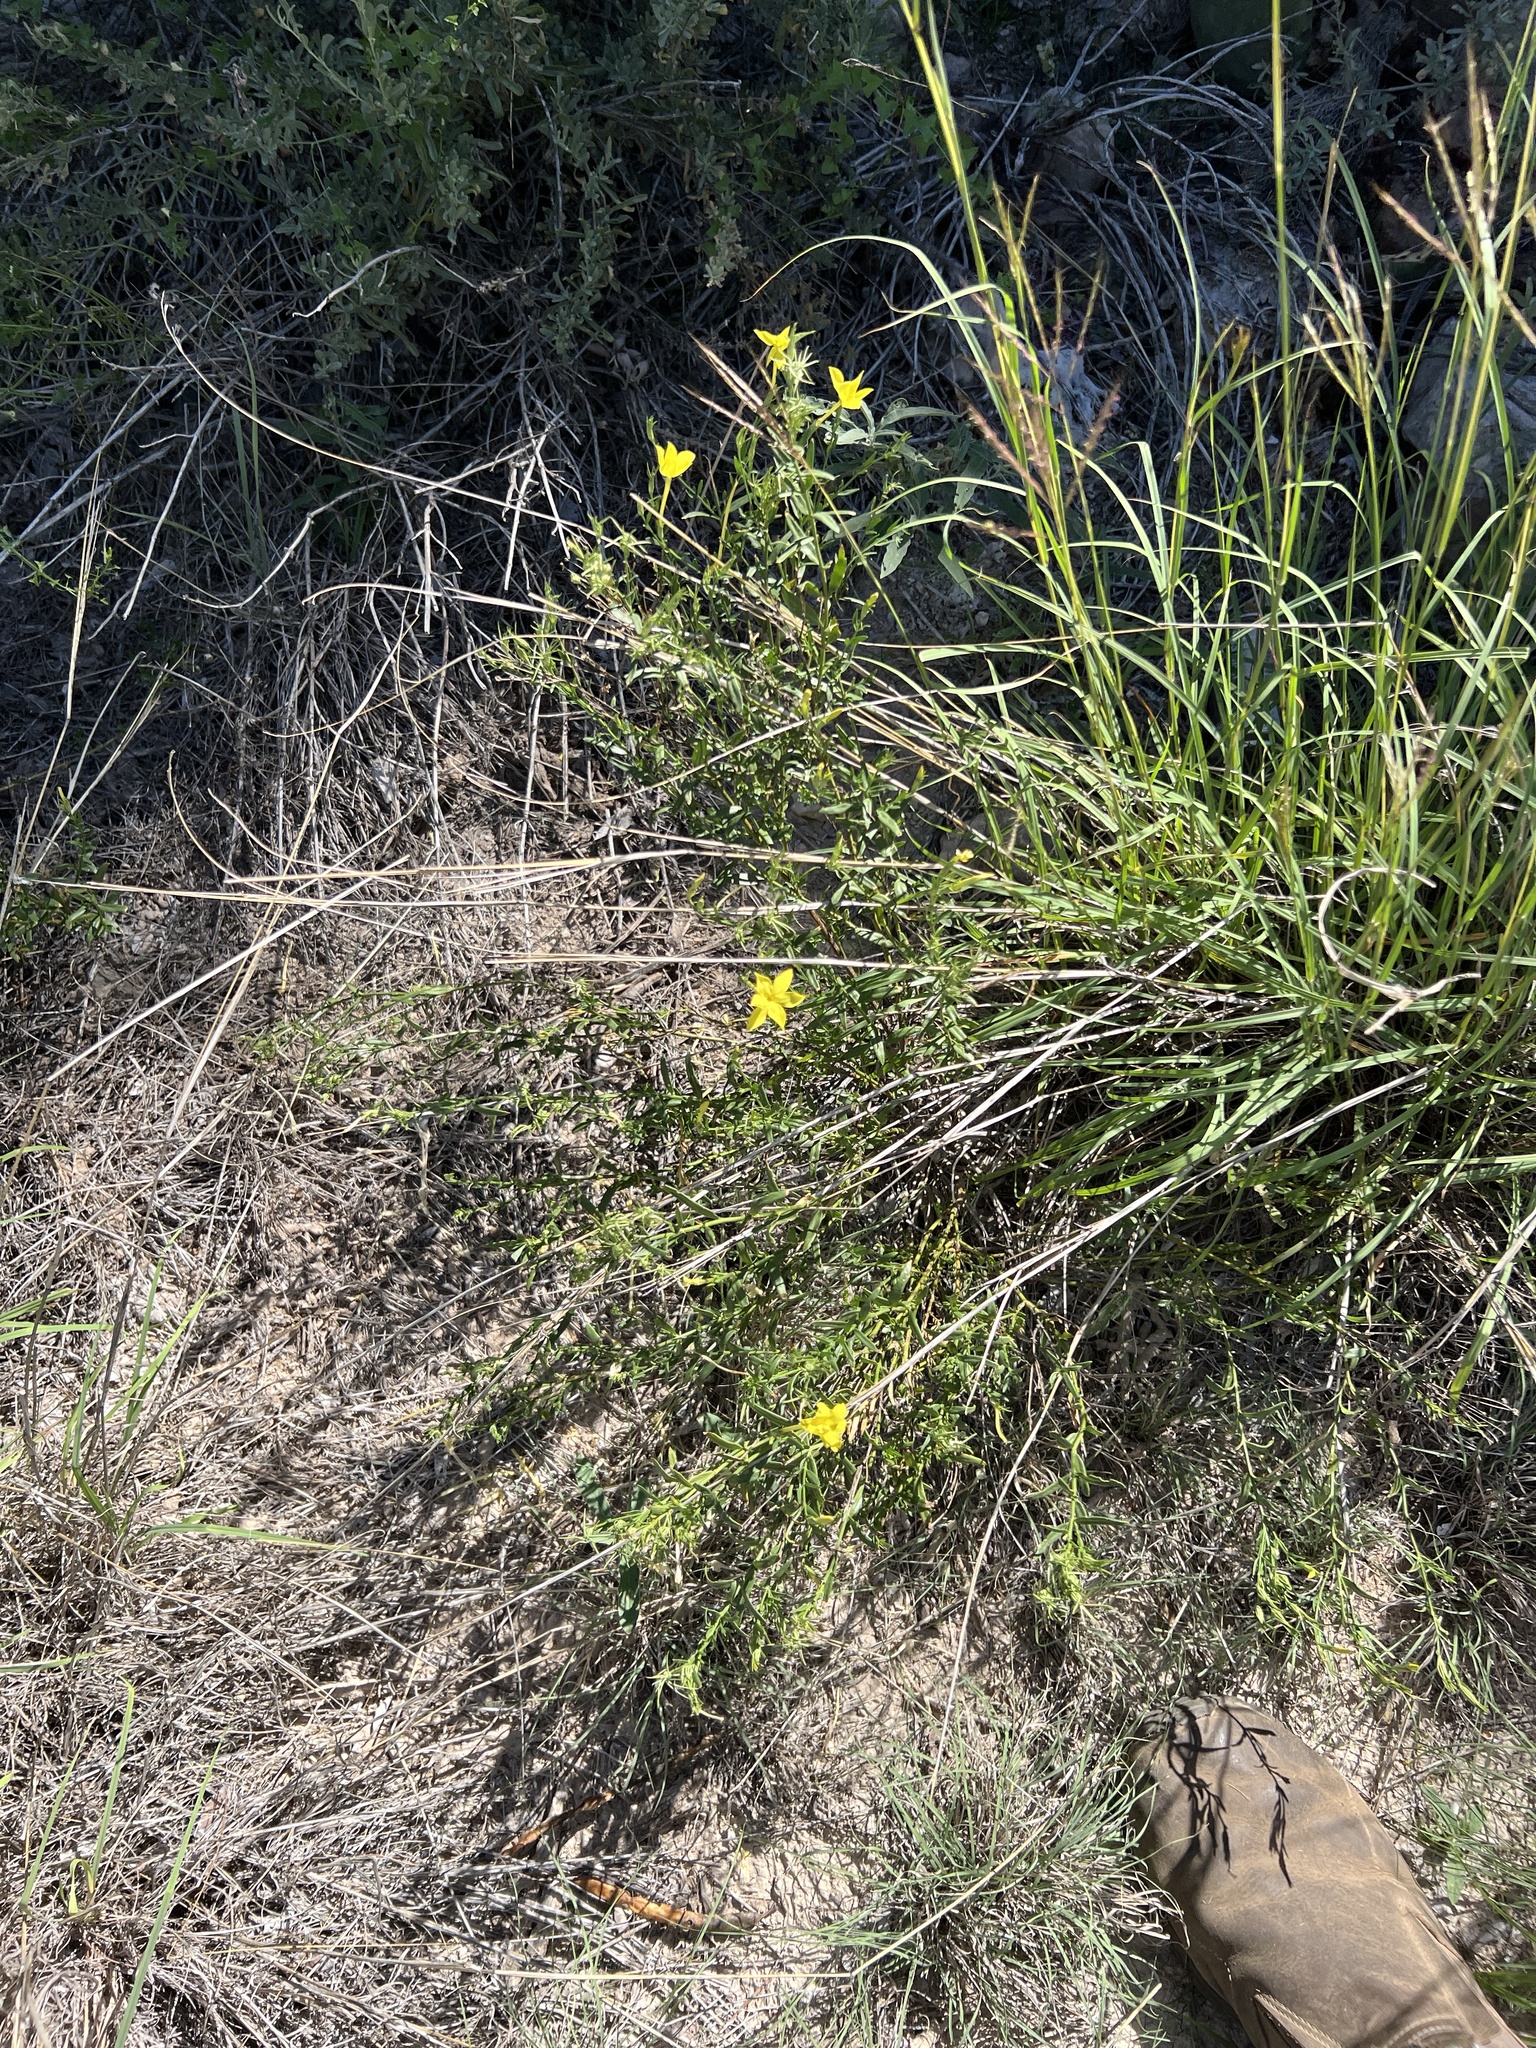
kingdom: Plantae
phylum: Tracheophyta
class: Magnoliopsida
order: Lamiales
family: Oleaceae
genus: Menodora
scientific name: Menodora longiflora
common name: Showy menodora
